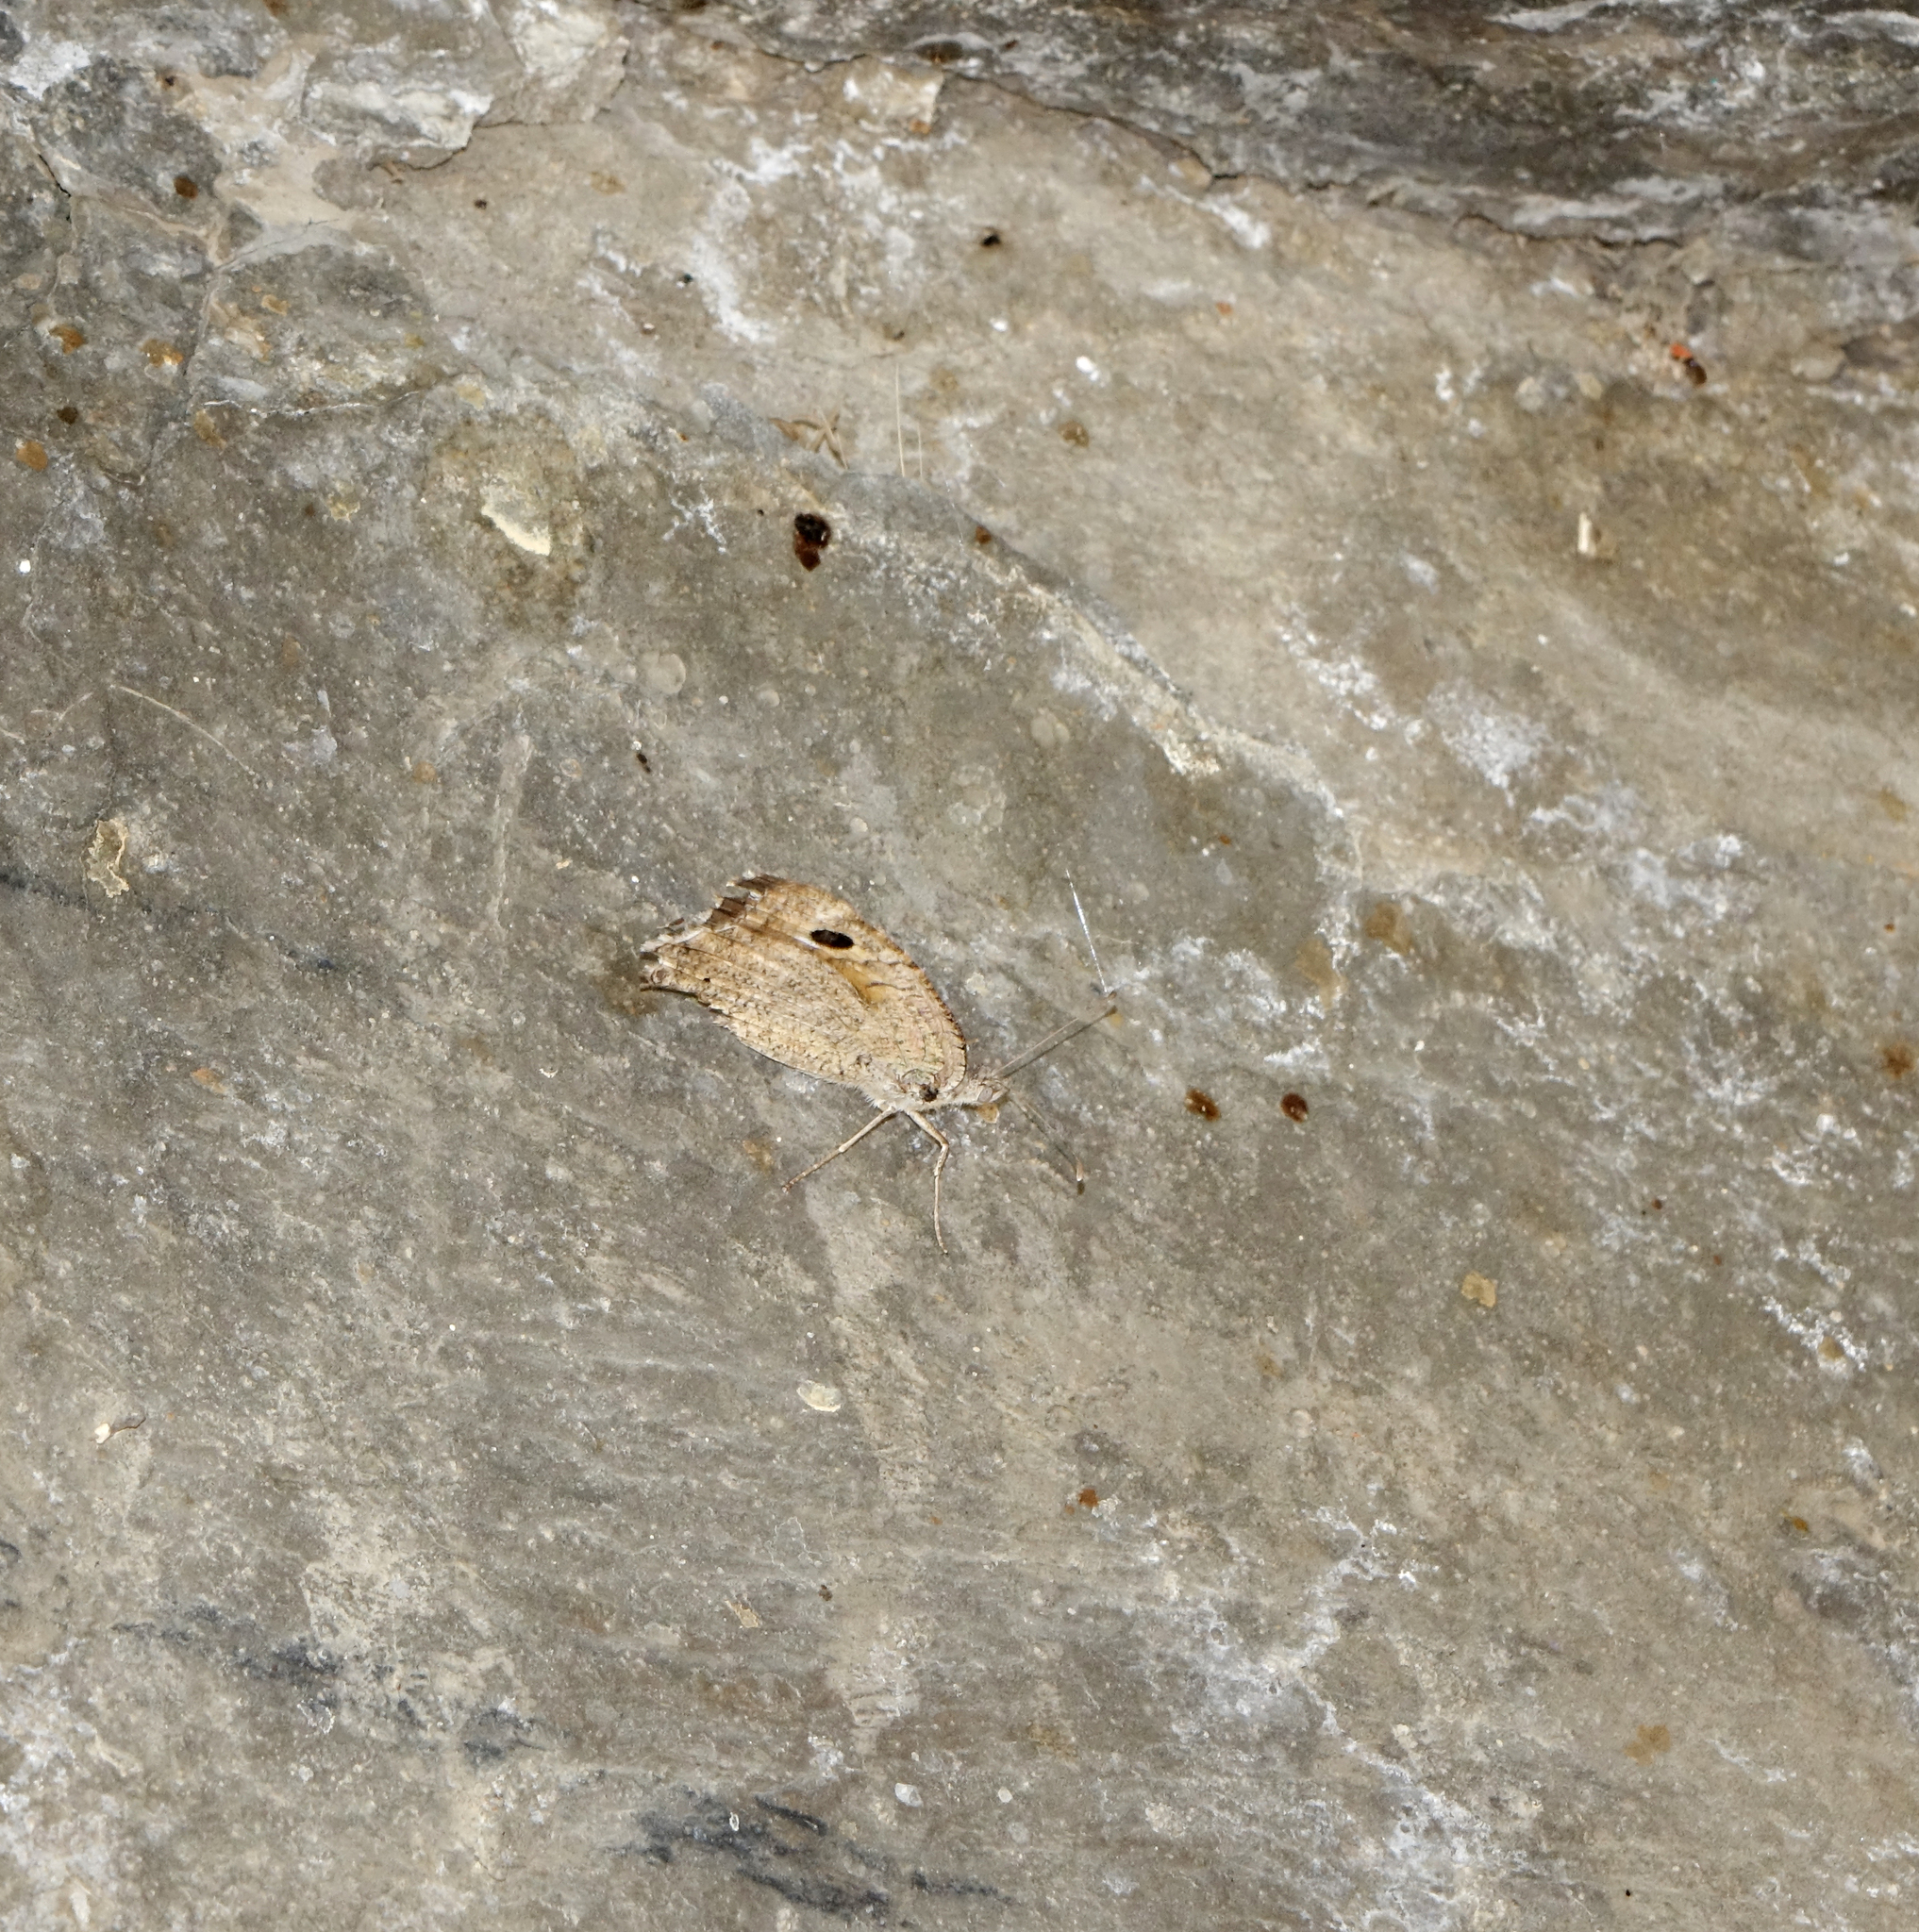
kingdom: Animalia
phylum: Arthropoda
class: Insecta
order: Lepidoptera
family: Nymphalidae
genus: Pseudochazara
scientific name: Pseudochazara pelopea
